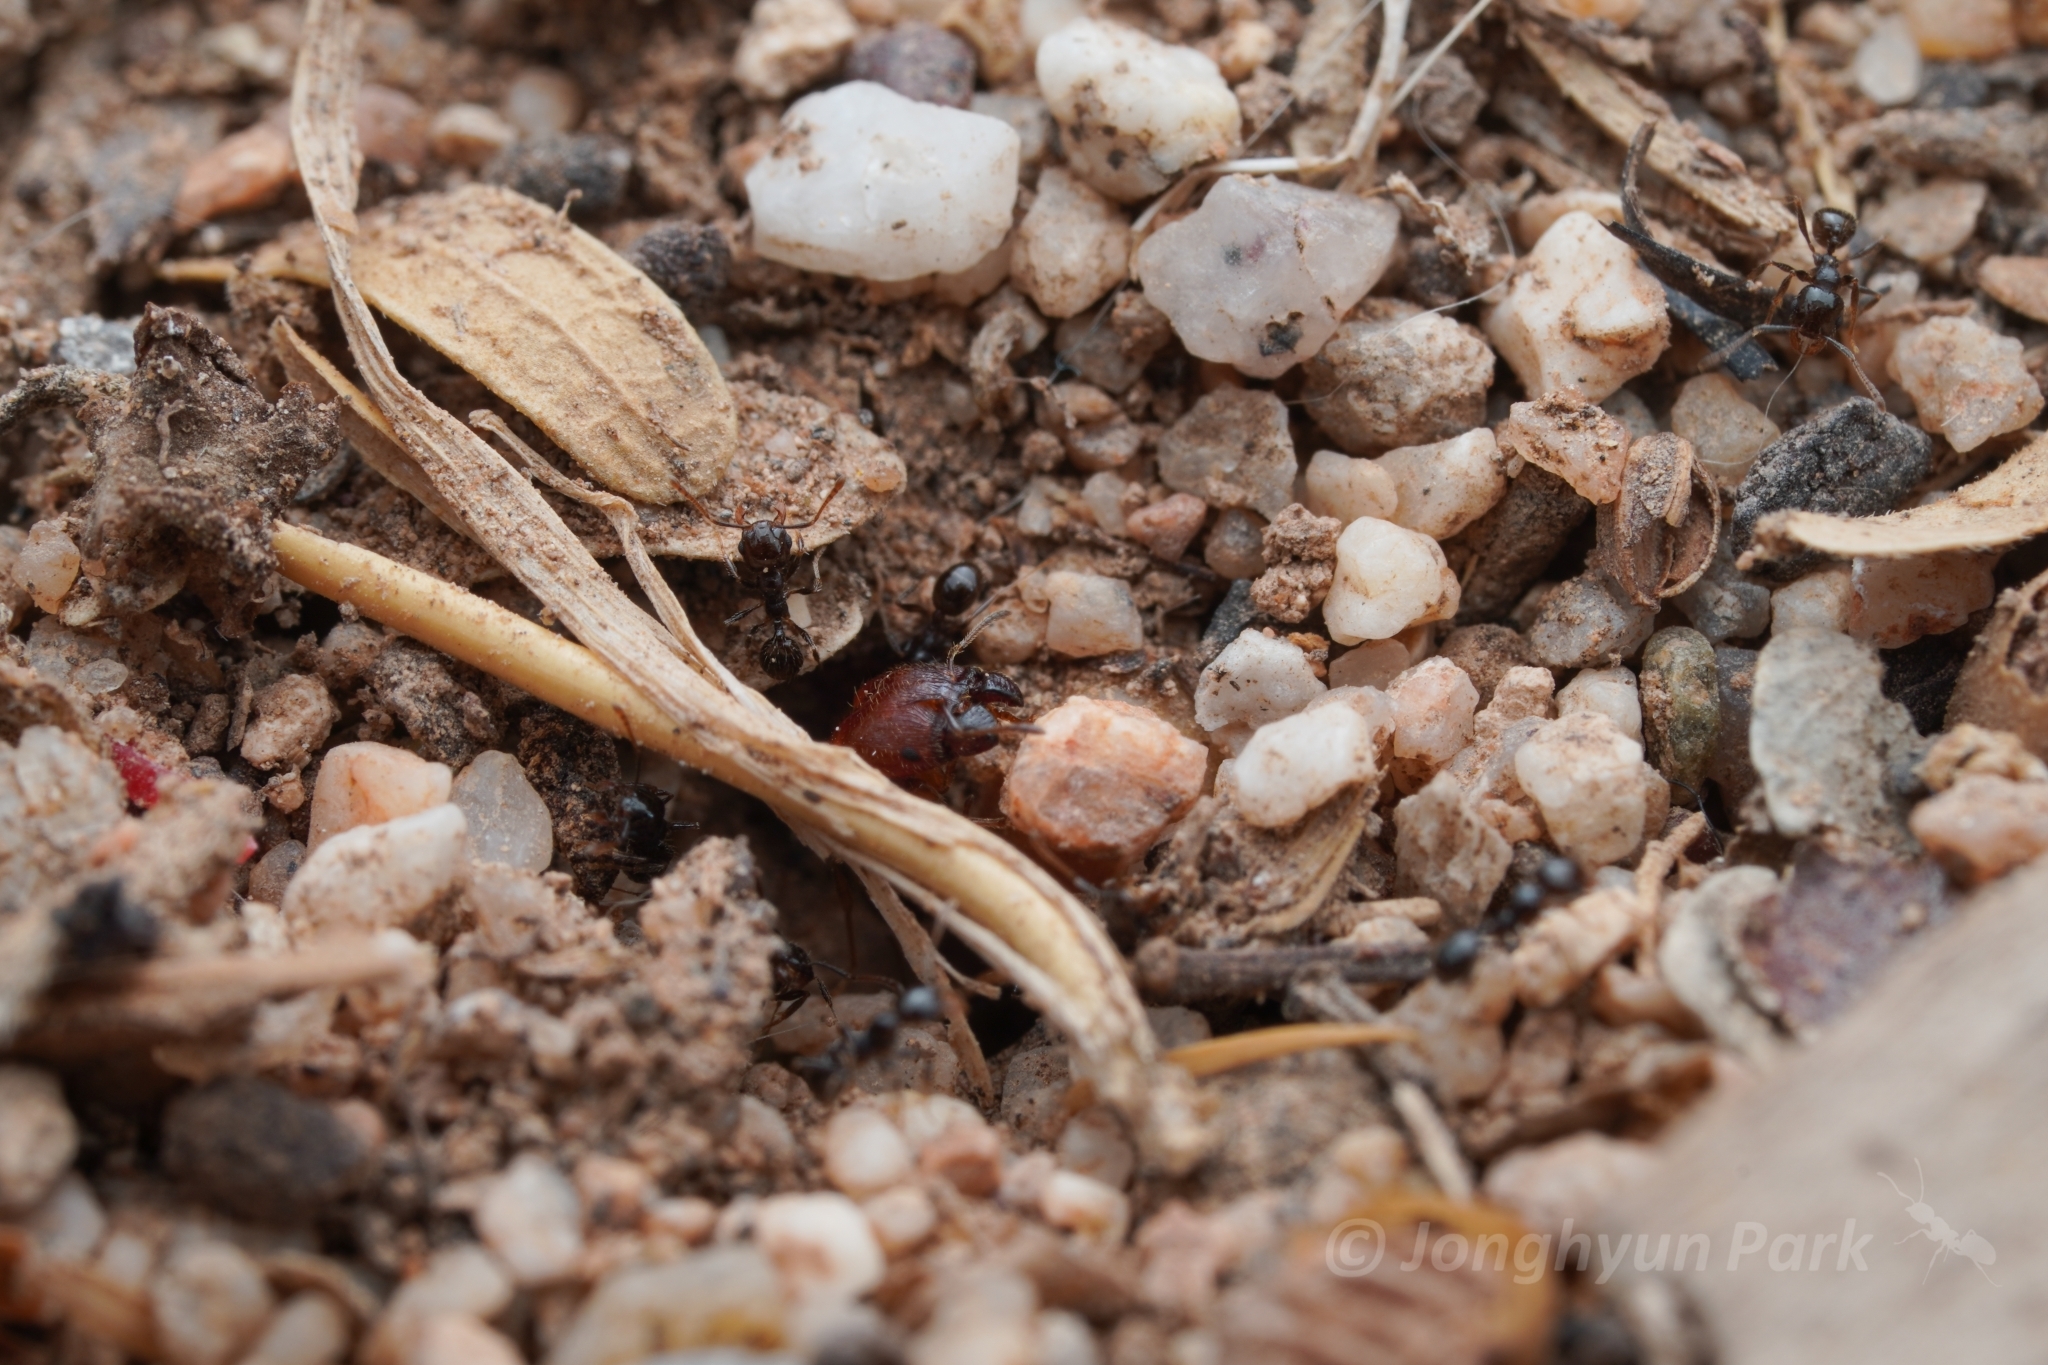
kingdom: Animalia
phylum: Arthropoda
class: Insecta
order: Hymenoptera
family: Formicidae
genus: Pheidole
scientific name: Pheidole xerophila
